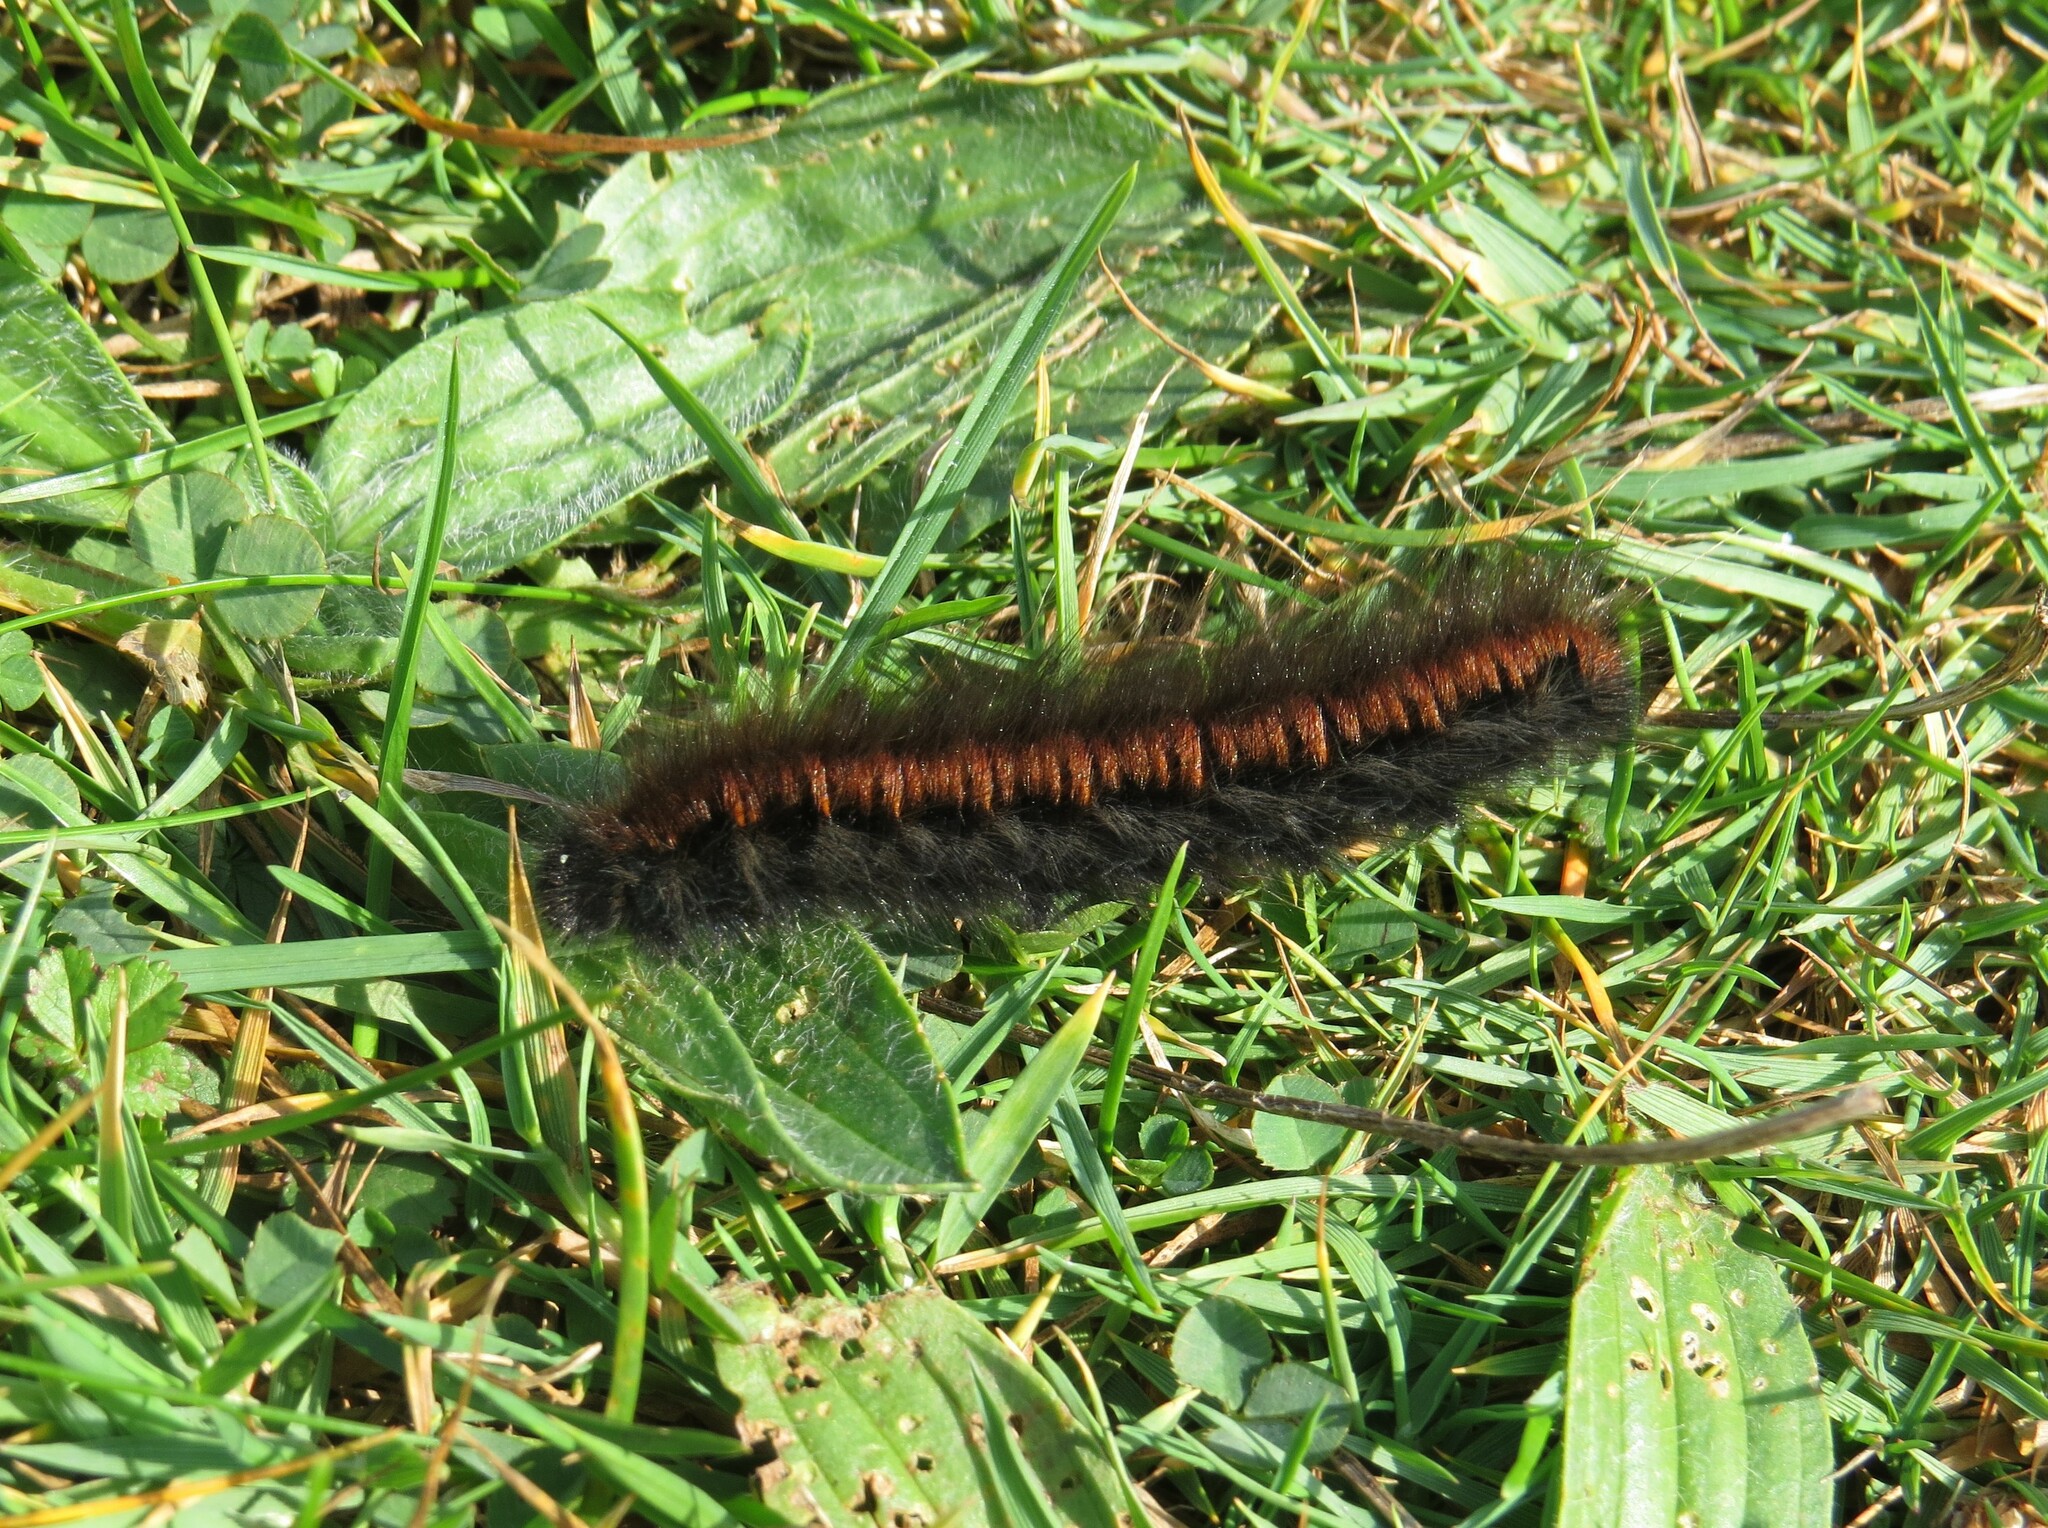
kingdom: Animalia
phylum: Arthropoda
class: Insecta
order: Lepidoptera
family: Lasiocampidae
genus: Macrothylacia
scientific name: Macrothylacia rubi
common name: Fox moth
